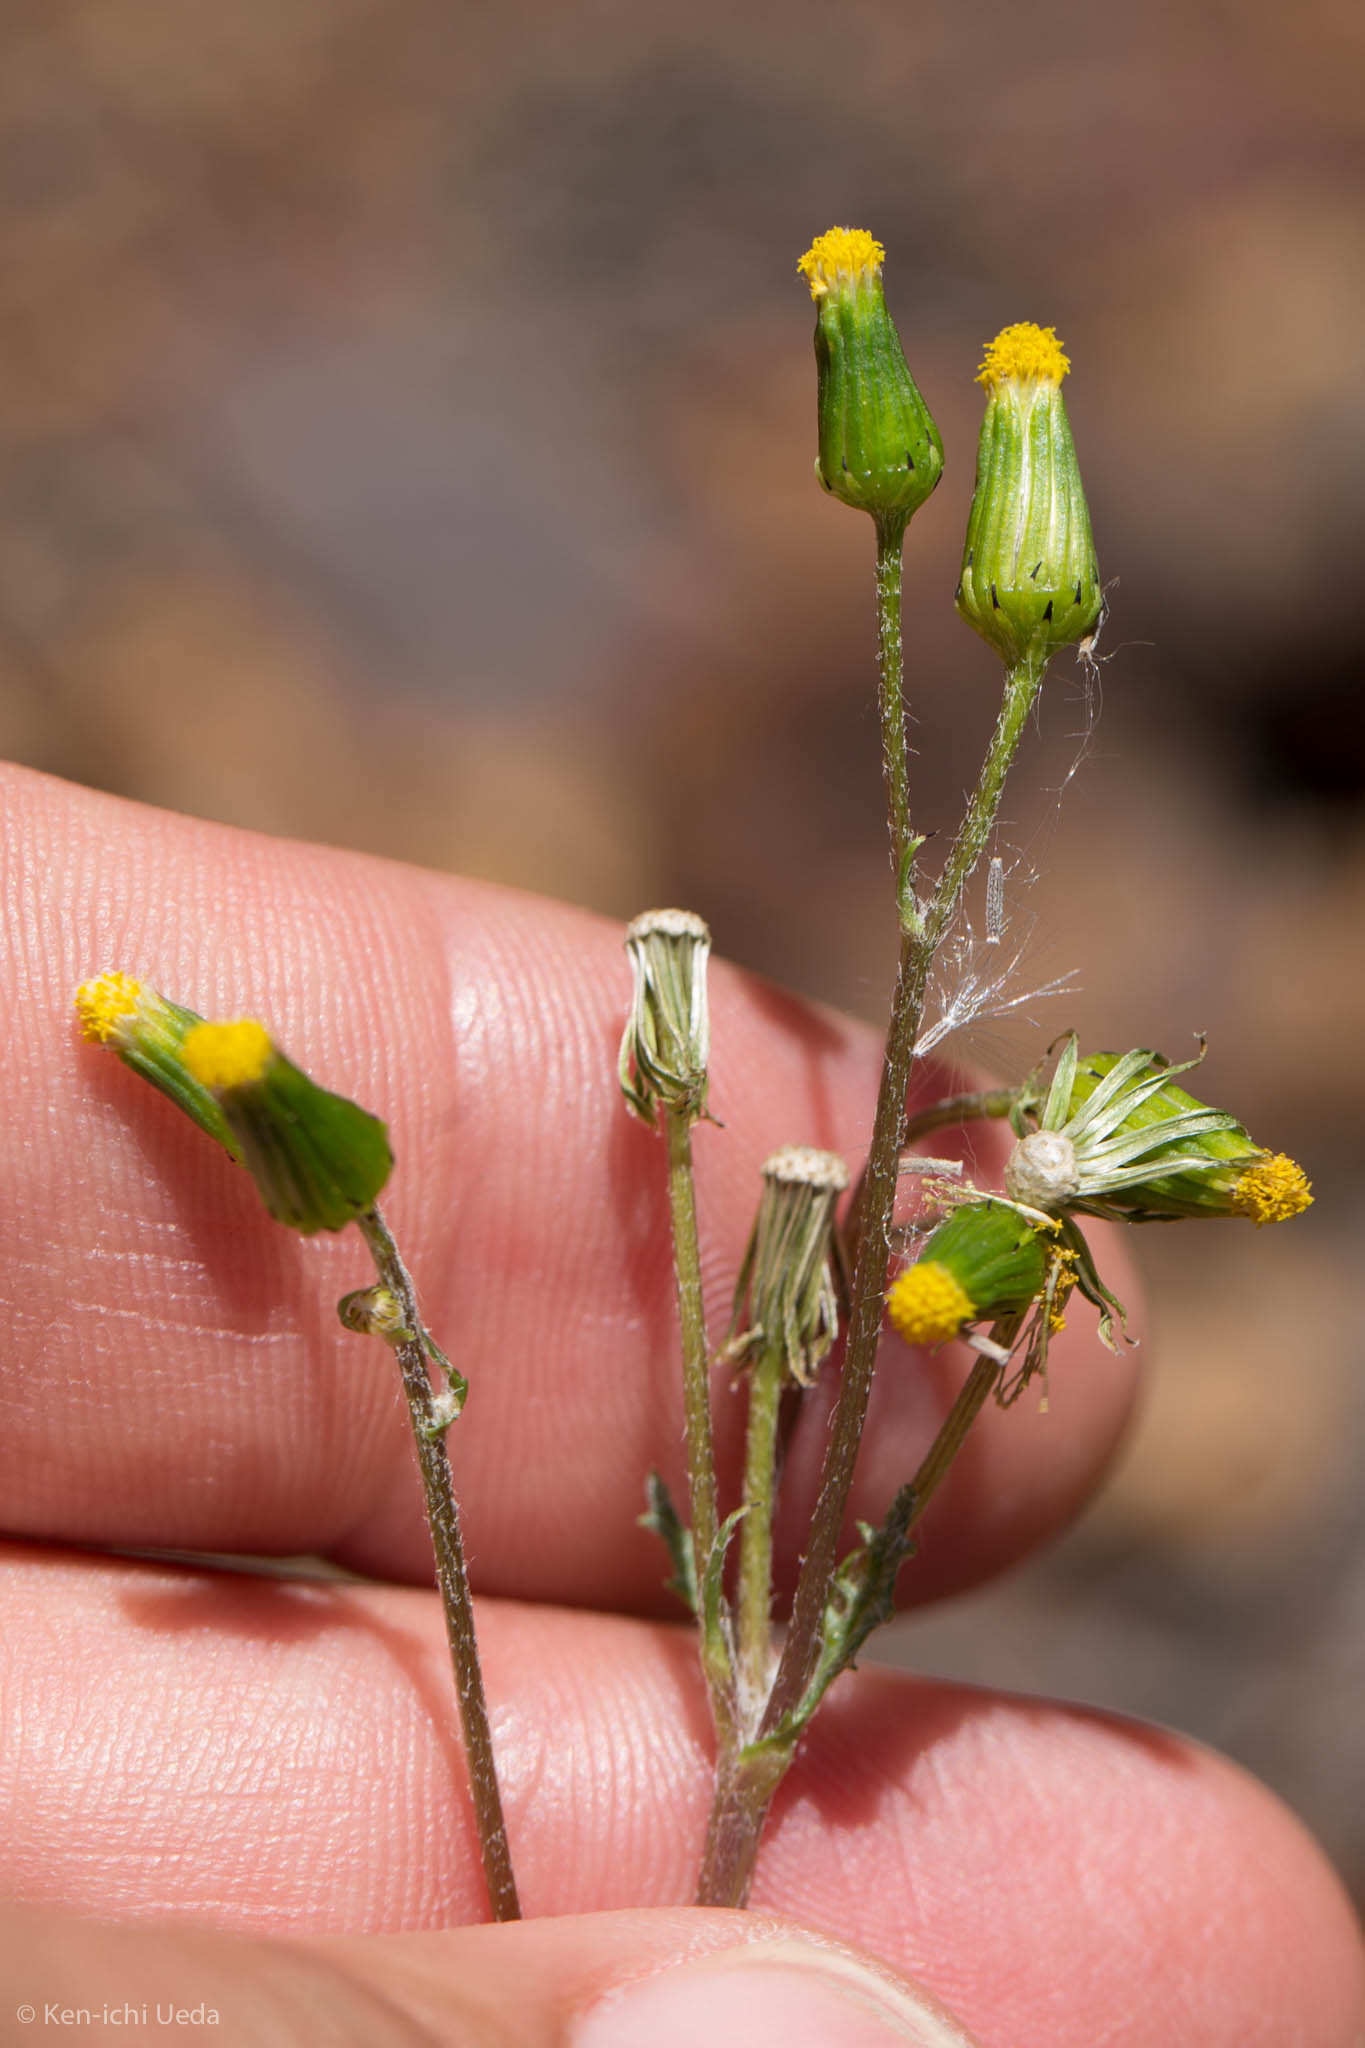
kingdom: Plantae
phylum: Tracheophyta
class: Magnoliopsida
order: Asterales
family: Asteraceae
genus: Senecio
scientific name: Senecio sylvaticus
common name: Woodland ragwort
